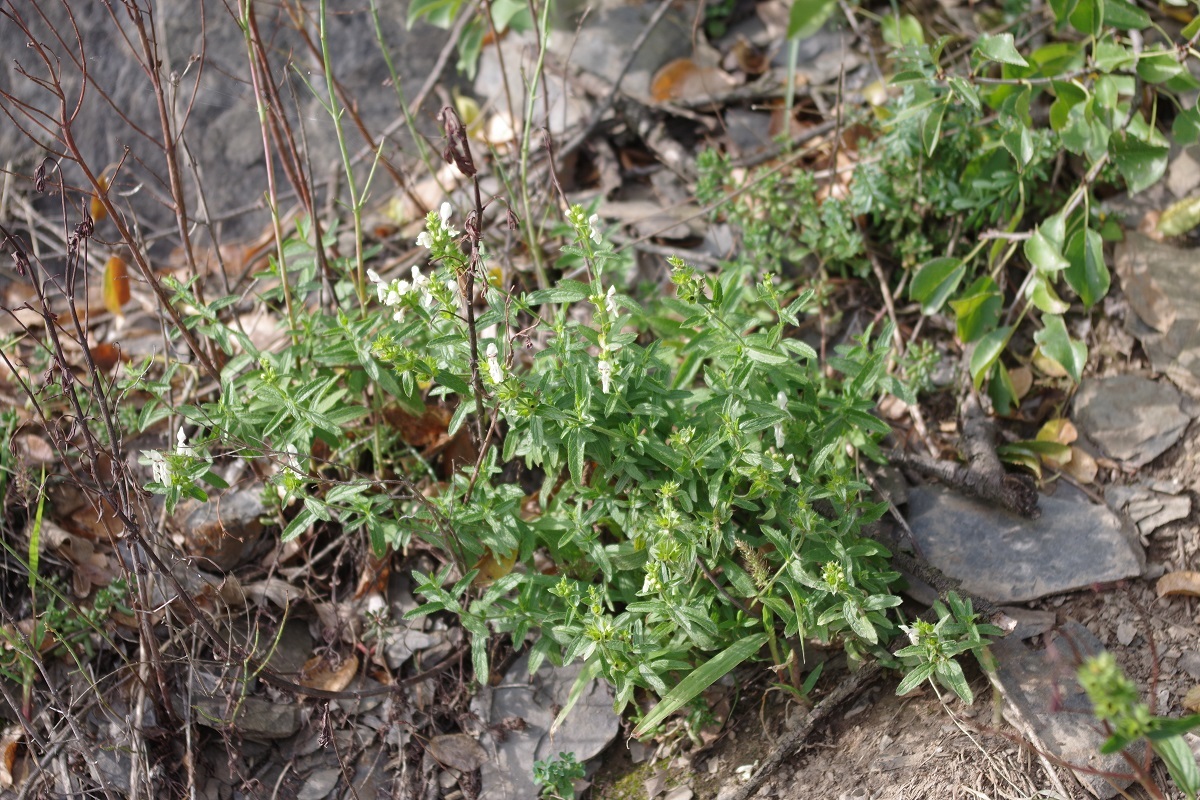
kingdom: Plantae
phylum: Tracheophyta
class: Magnoliopsida
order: Lamiales
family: Lamiaceae
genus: Stachys
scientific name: Stachys recta
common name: Perennial yellow-woundwort
